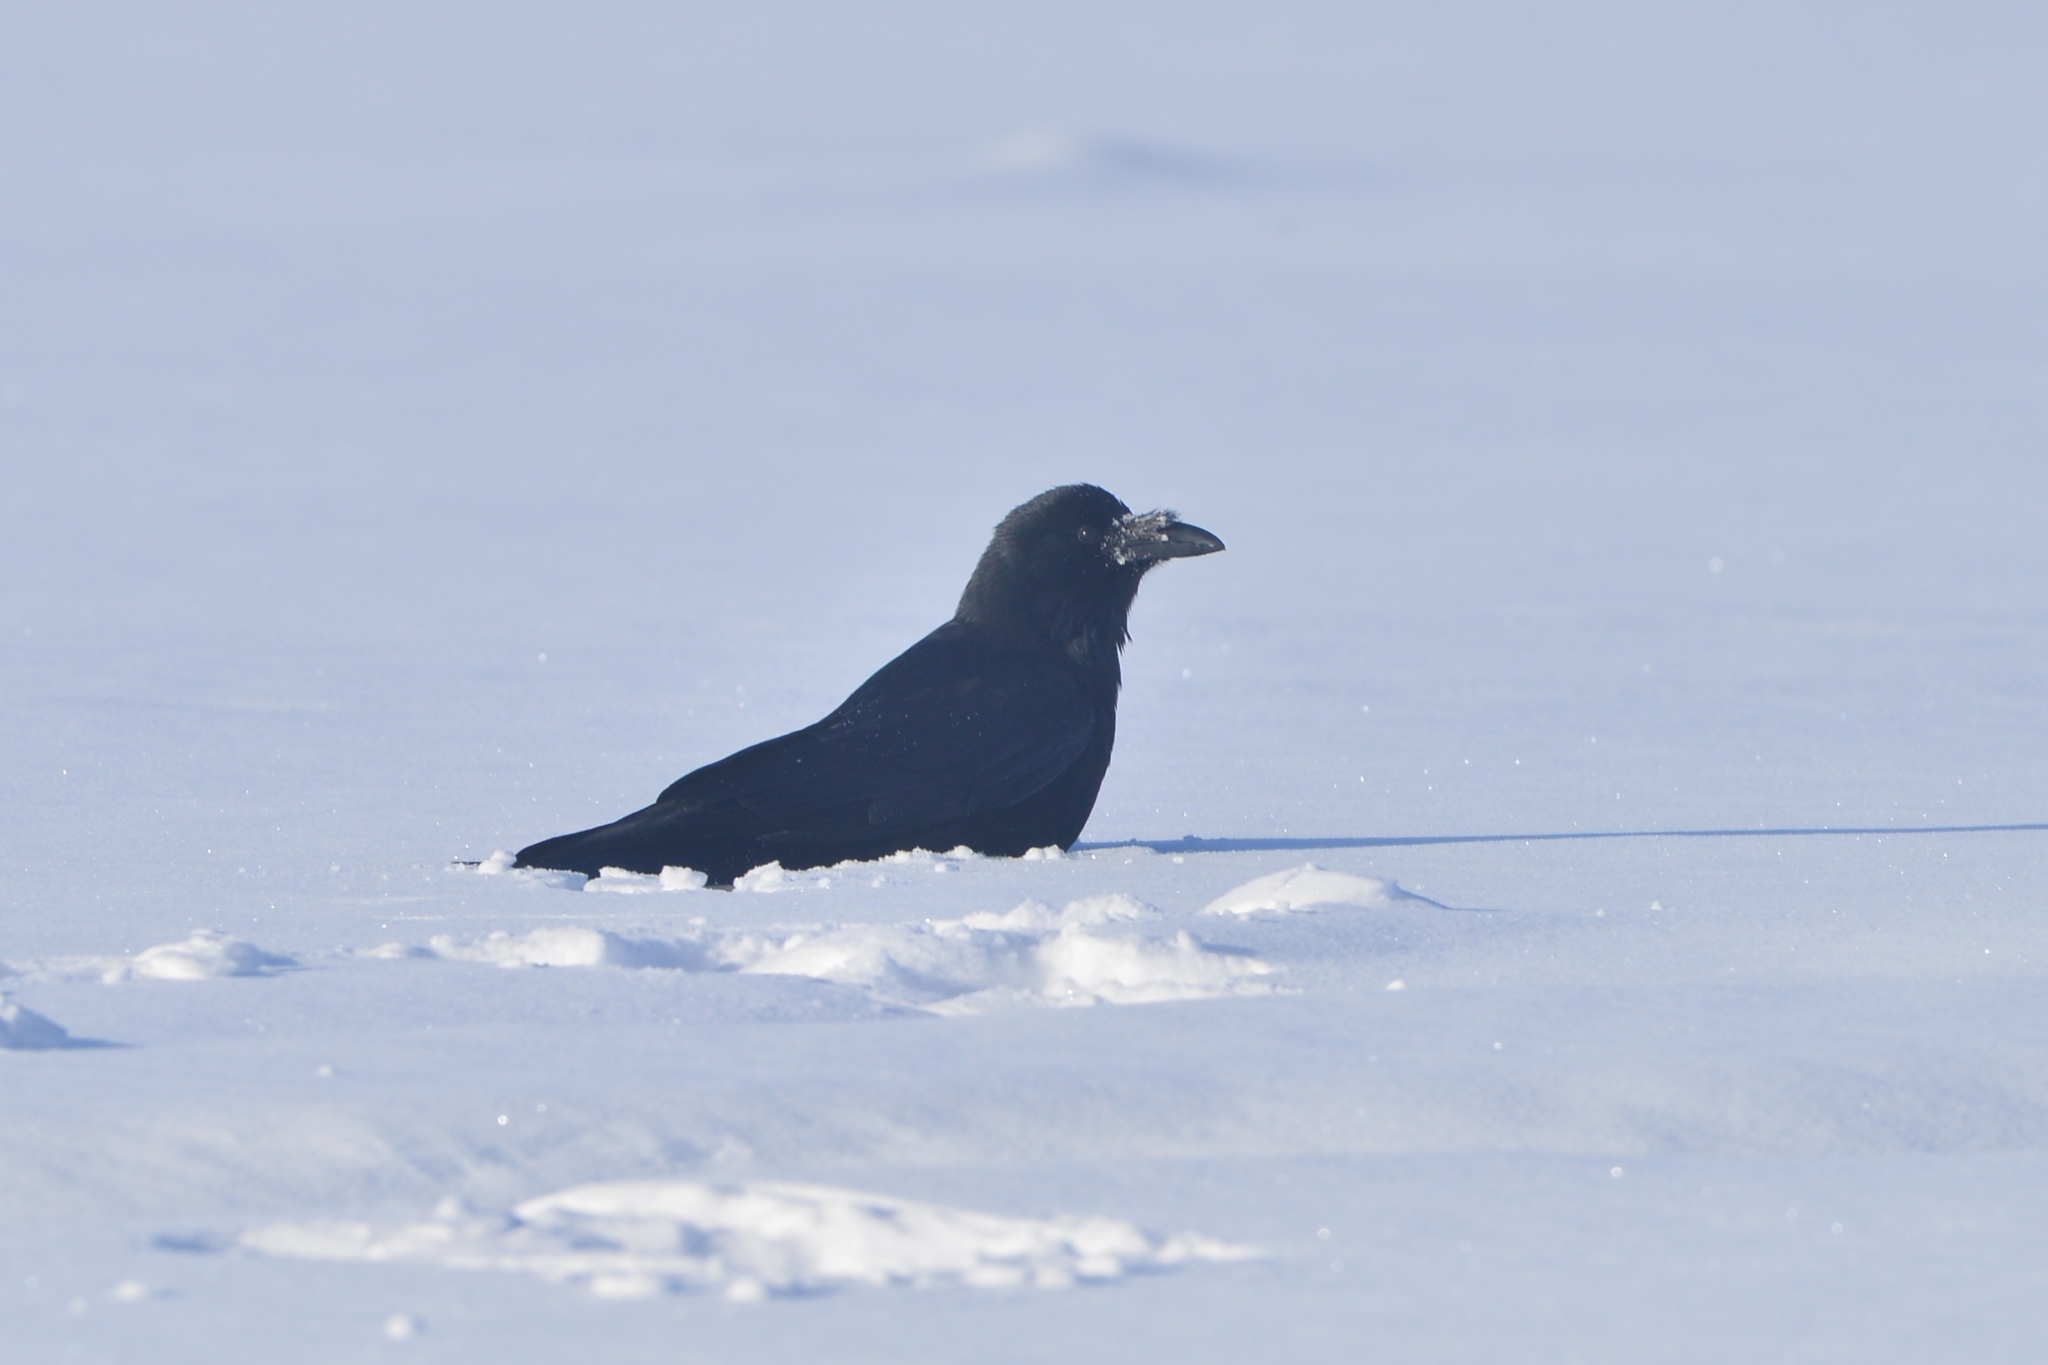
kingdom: Animalia
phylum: Chordata
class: Aves
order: Passeriformes
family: Corvidae
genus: Corvus
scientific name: Corvus corone
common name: Carrion crow
